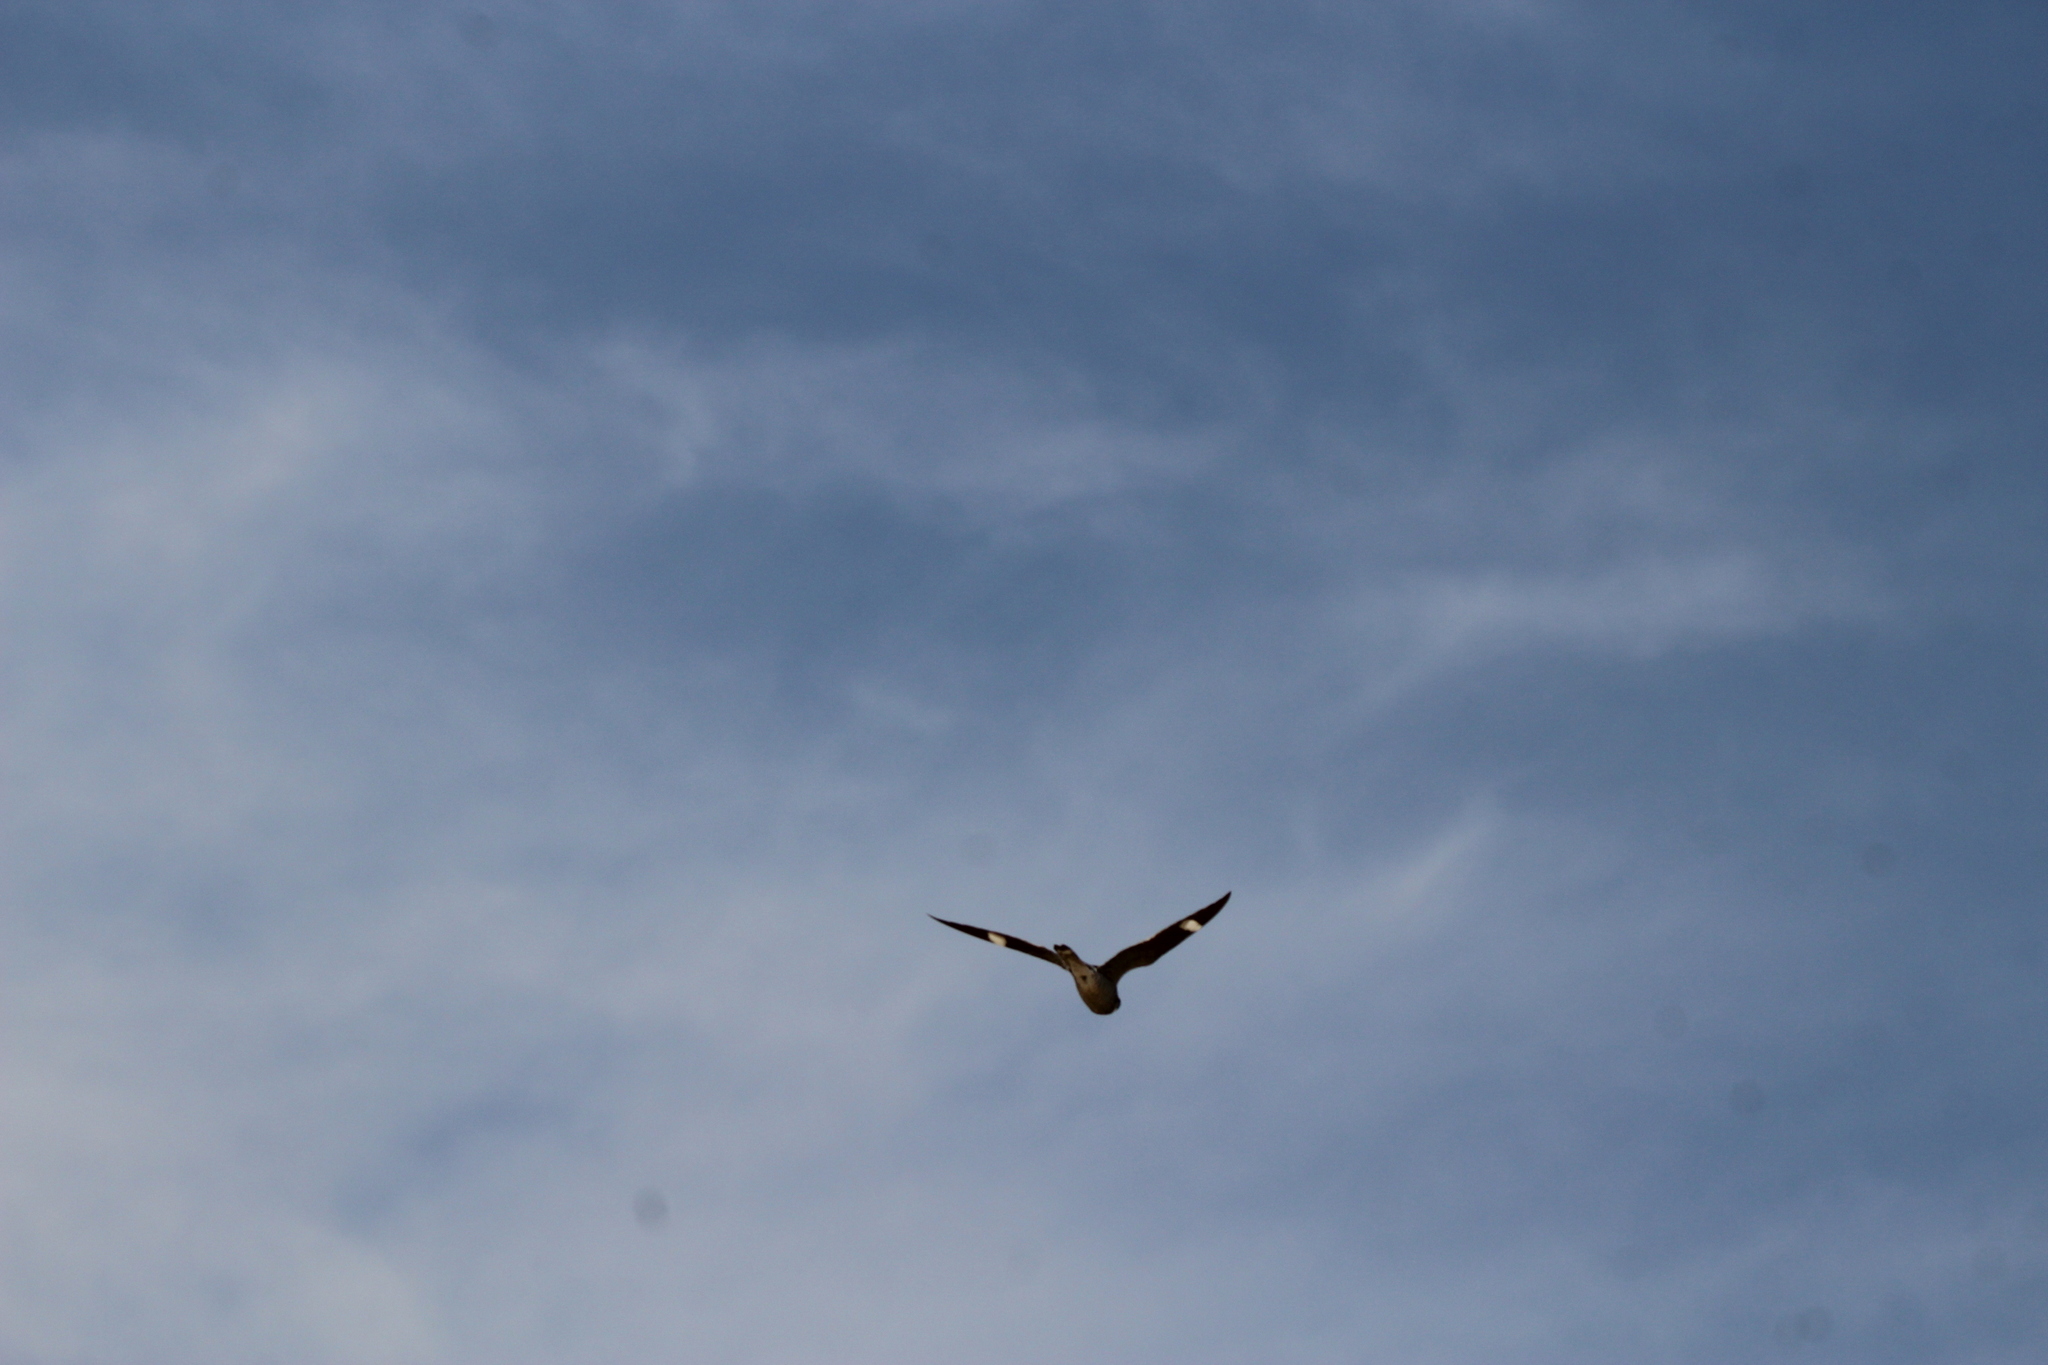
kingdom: Animalia
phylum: Chordata
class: Aves
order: Caprimulgiformes
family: Caprimulgidae
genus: Chordeiles
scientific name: Chordeiles minor
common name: Common nighthawk
